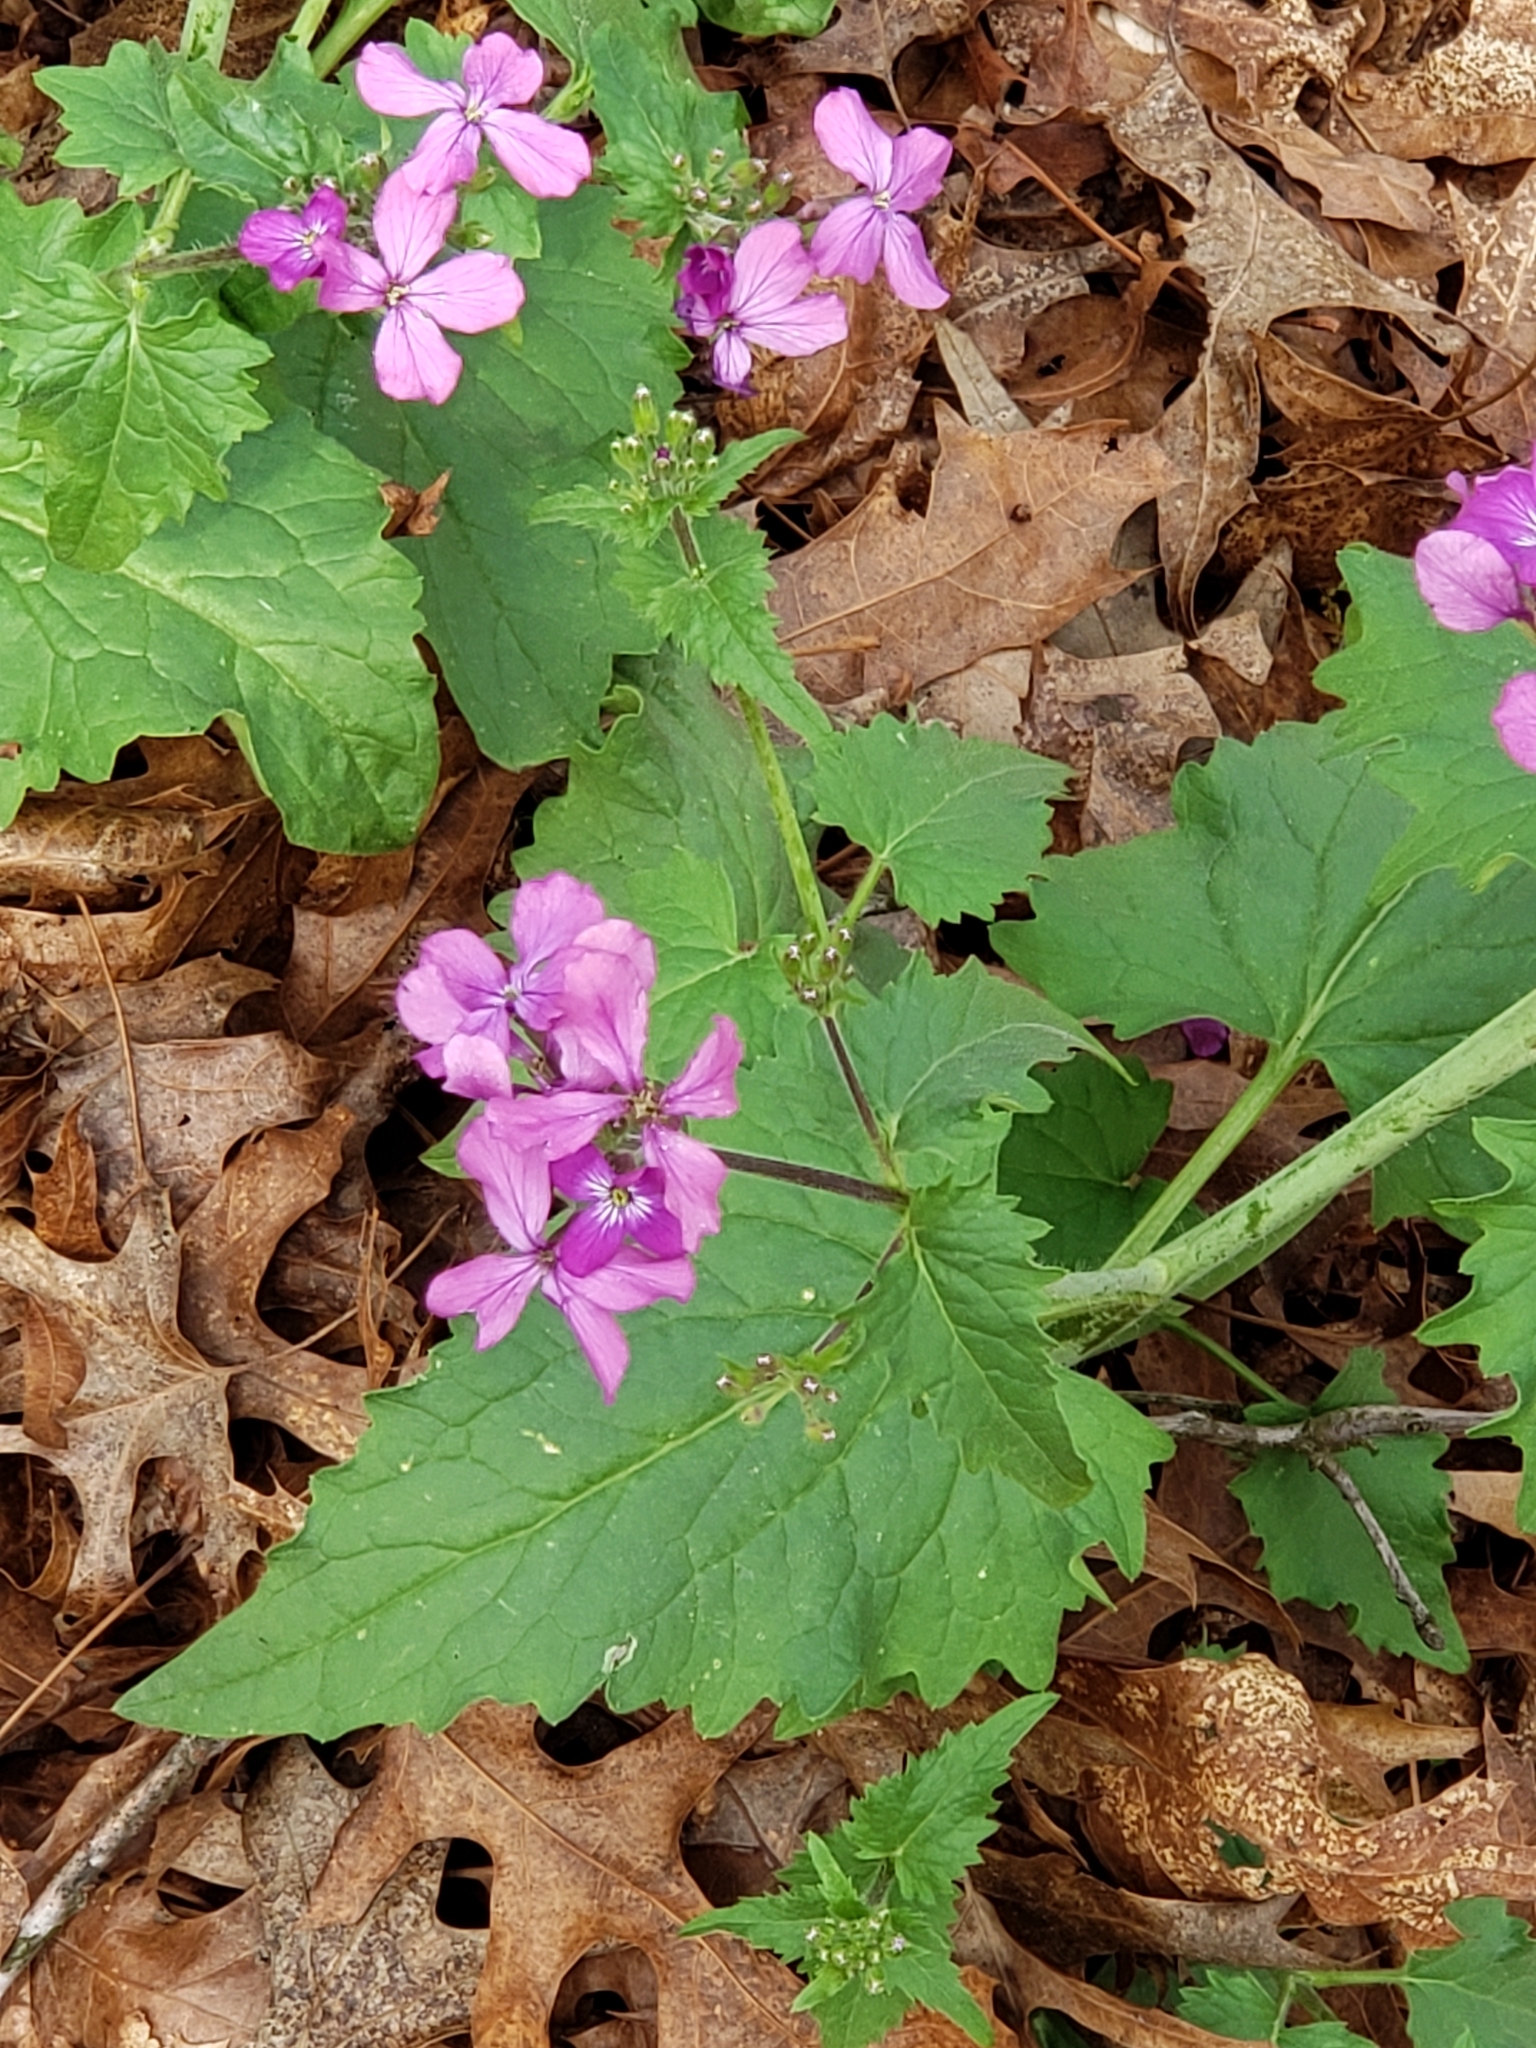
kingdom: Plantae
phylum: Tracheophyta
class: Magnoliopsida
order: Brassicales
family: Brassicaceae
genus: Lunaria
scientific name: Lunaria annua
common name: Honesty
